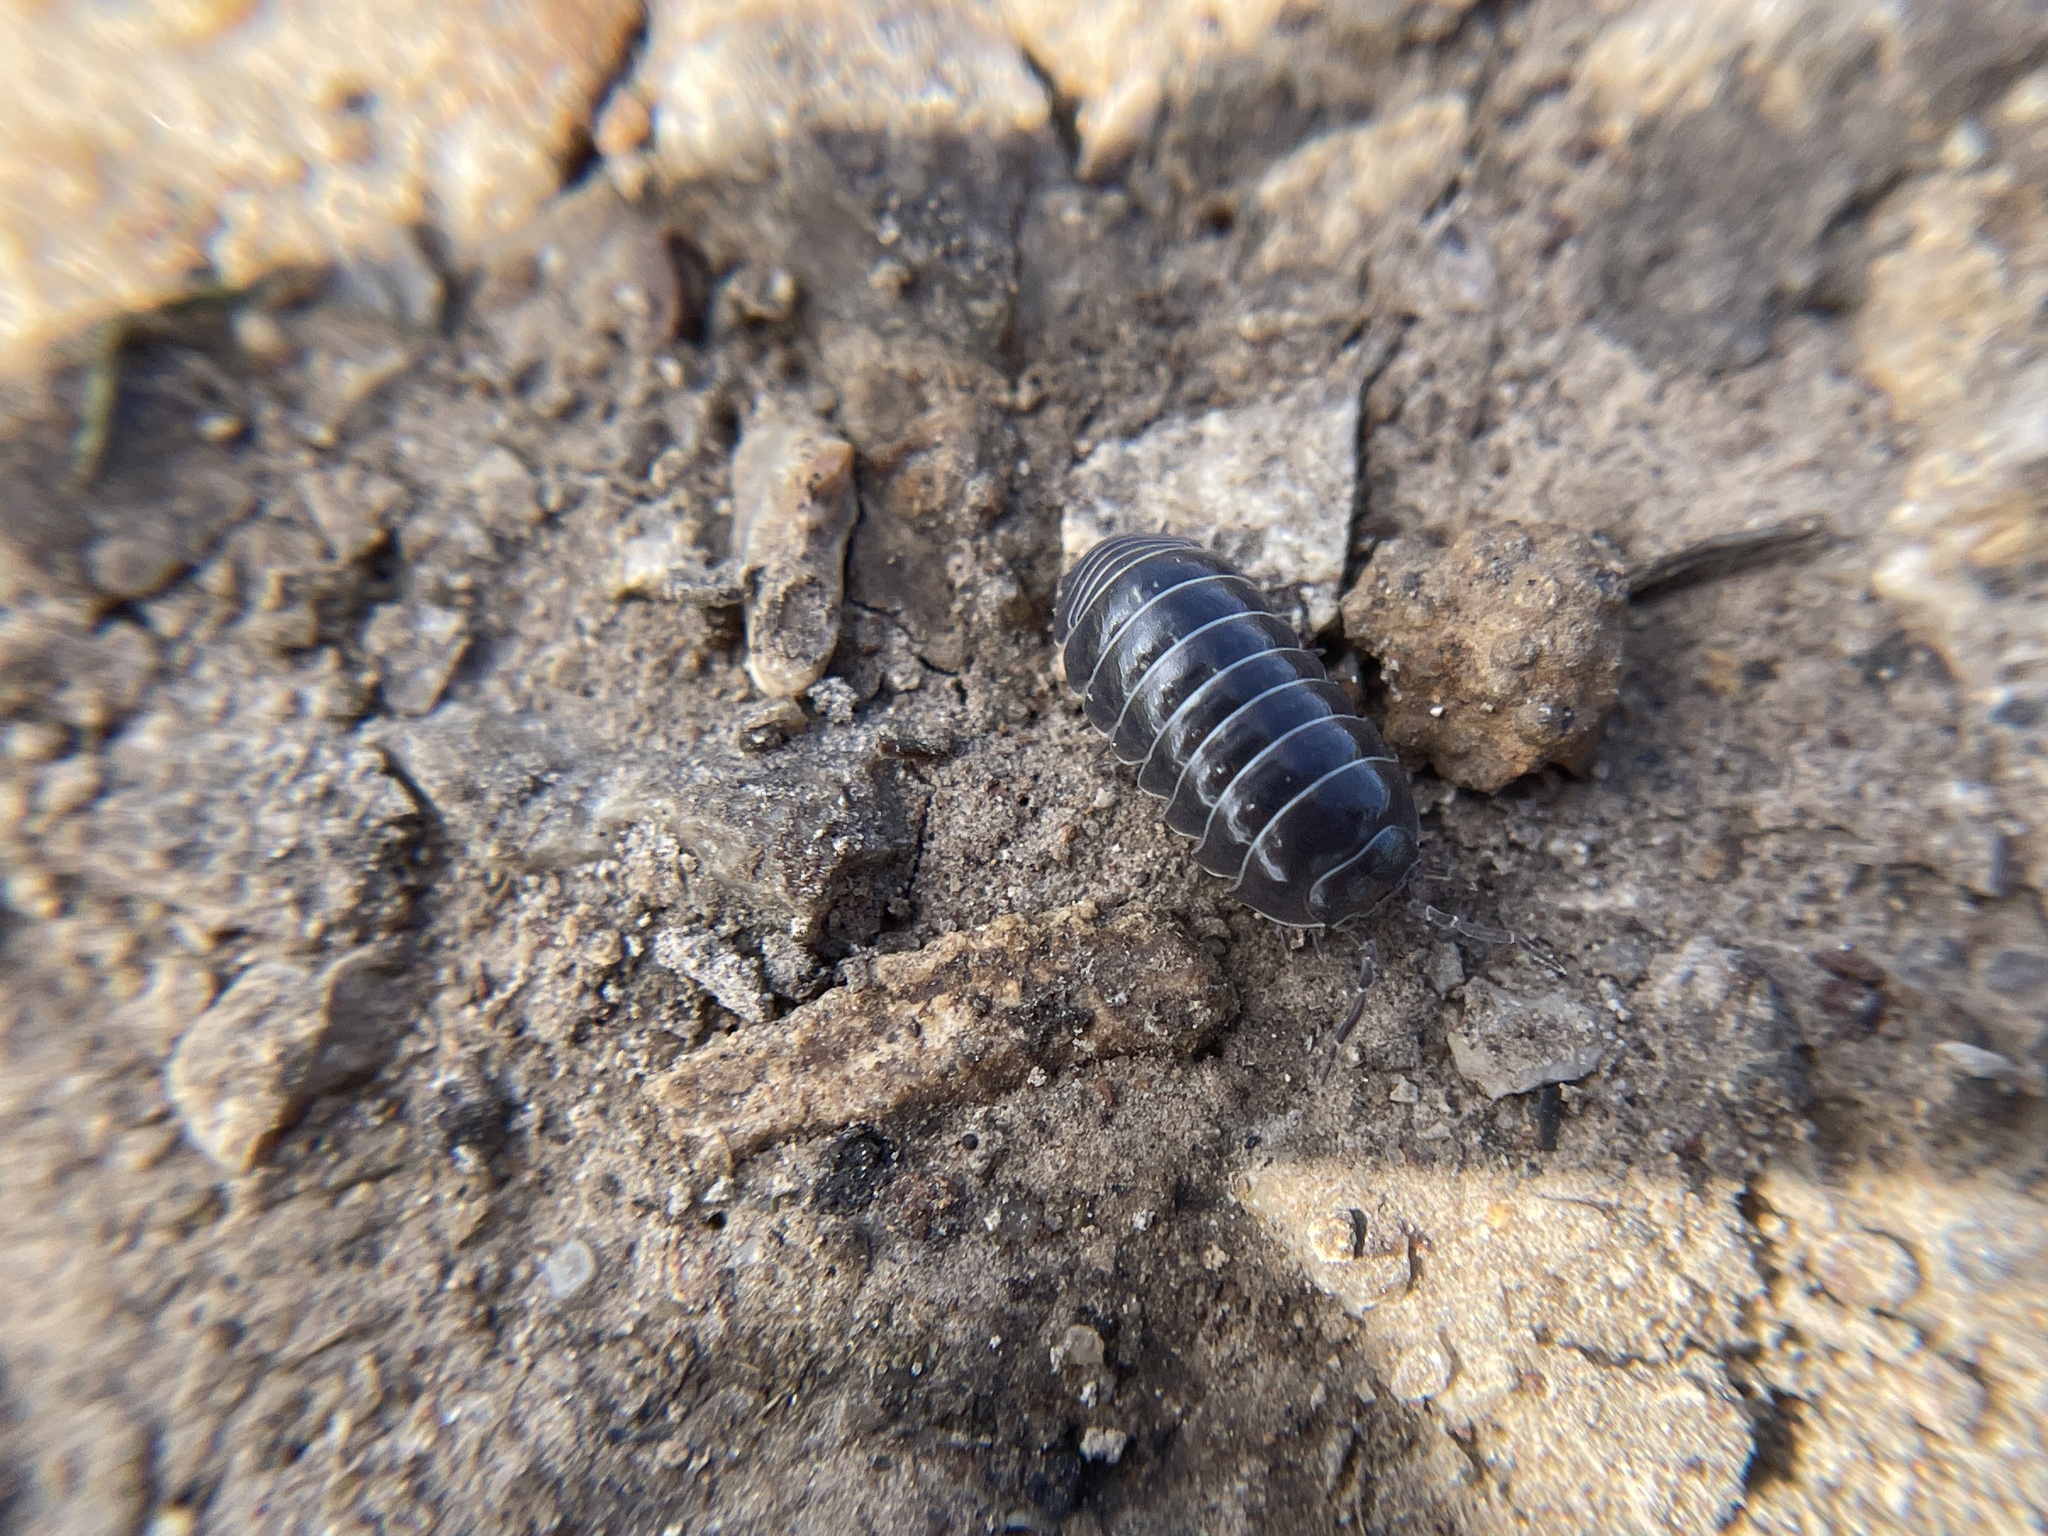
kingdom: Animalia
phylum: Arthropoda
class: Malacostraca
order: Isopoda
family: Armadillidiidae
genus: Armadillidium
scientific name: Armadillidium vulgare
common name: Common pill woodlouse
